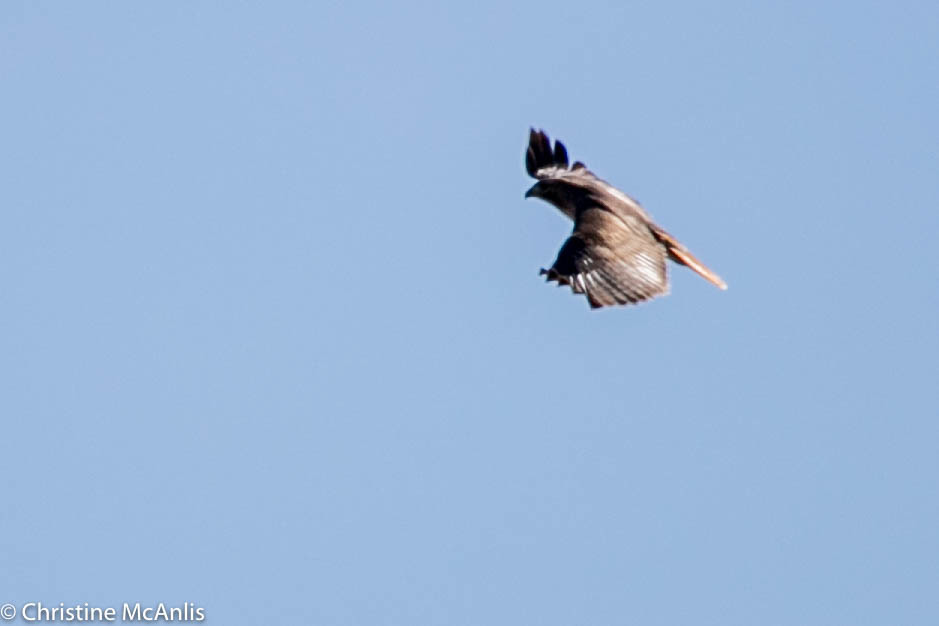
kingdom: Animalia
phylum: Chordata
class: Aves
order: Accipitriformes
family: Accipitridae
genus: Buteo
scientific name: Buteo jamaicensis
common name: Red-tailed hawk
